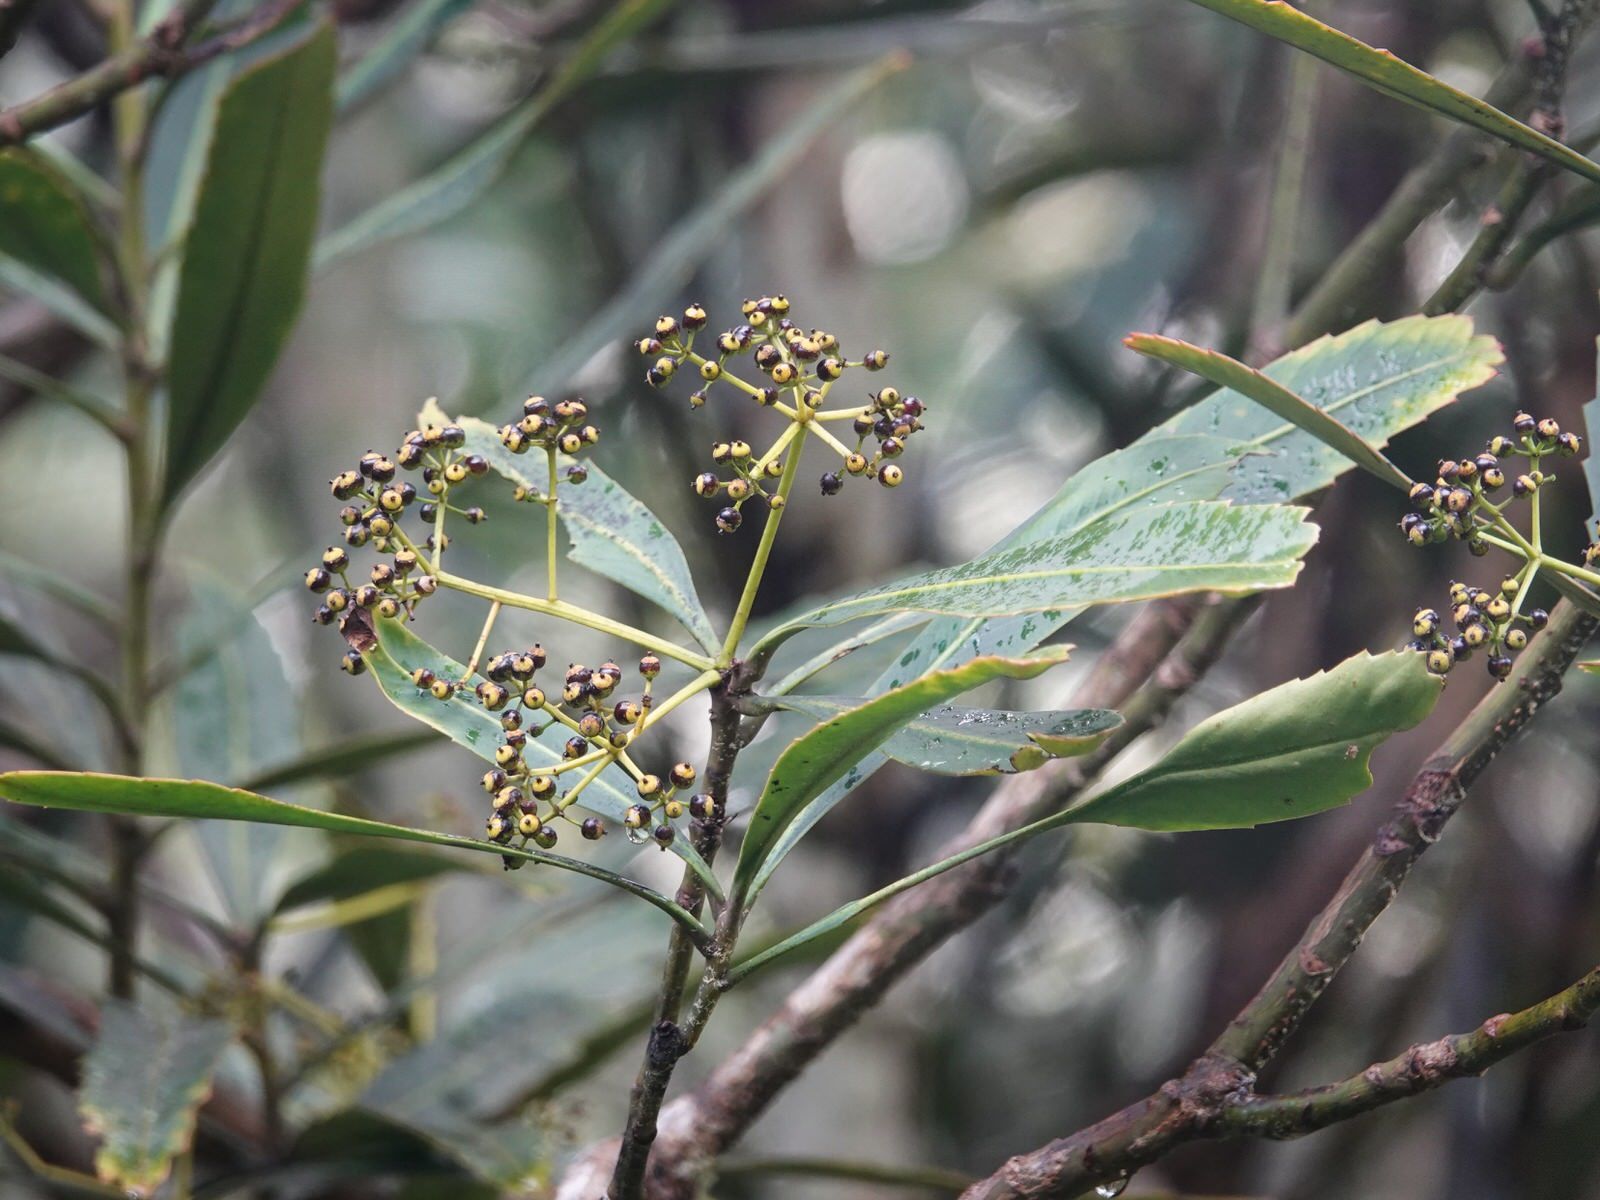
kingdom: Plantae
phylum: Tracheophyta
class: Magnoliopsida
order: Apiales
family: Araliaceae
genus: Pseudopanax
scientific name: Pseudopanax crassifolius
